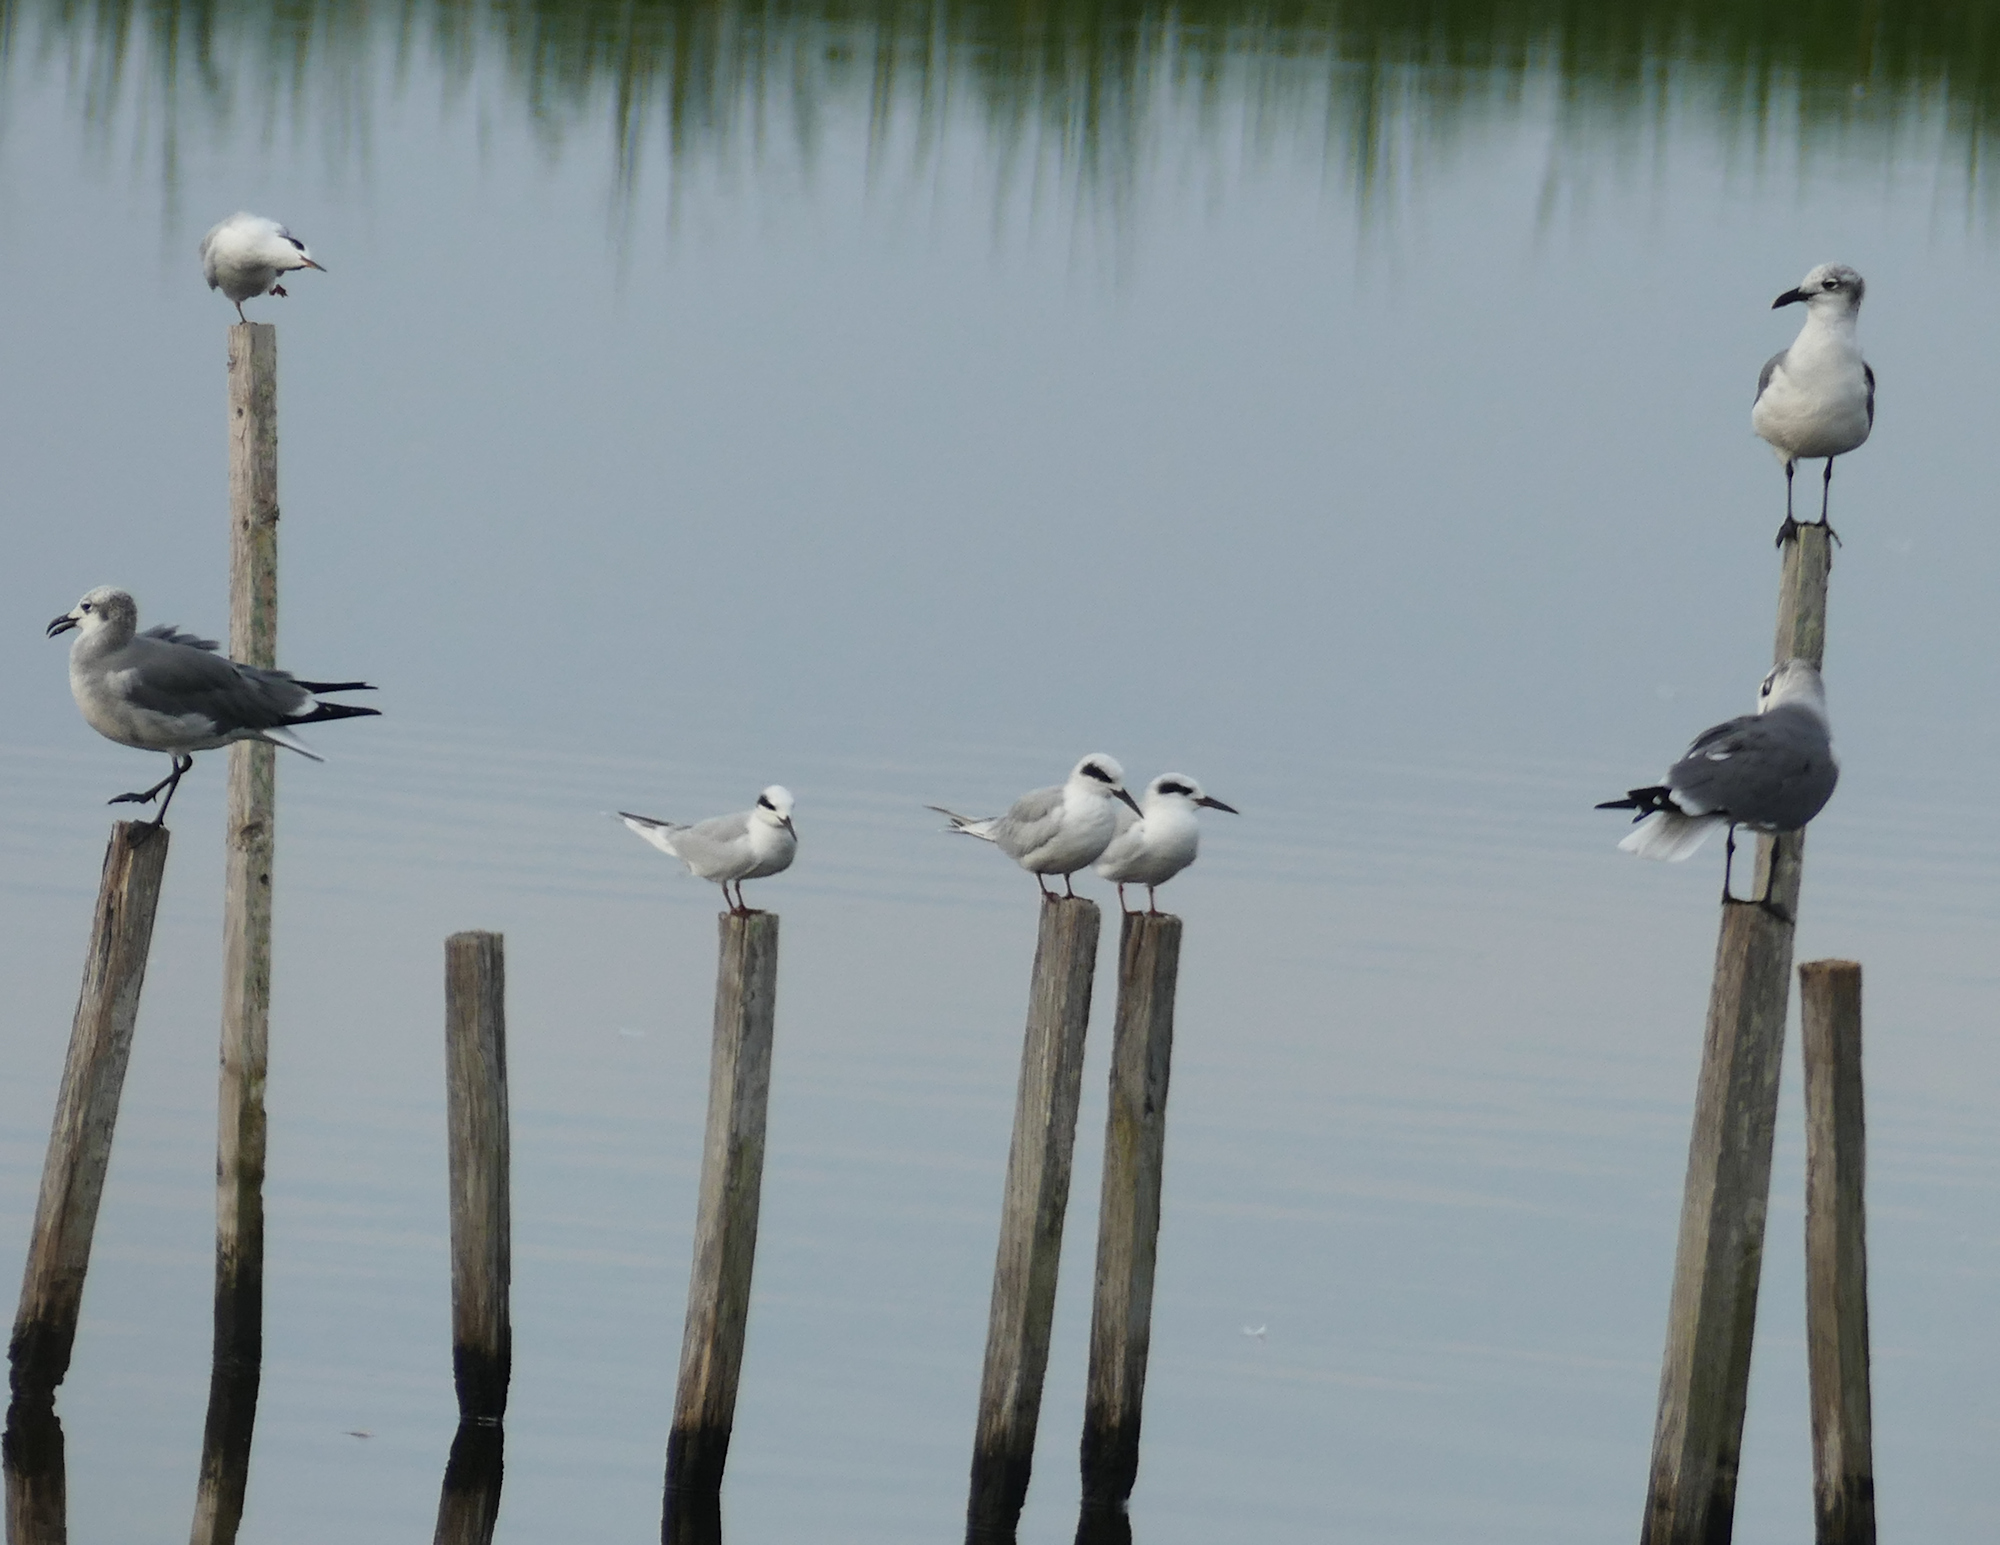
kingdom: Animalia
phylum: Chordata
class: Aves
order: Charadriiformes
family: Laridae
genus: Sterna
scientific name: Sterna forsteri
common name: Forster's tern
